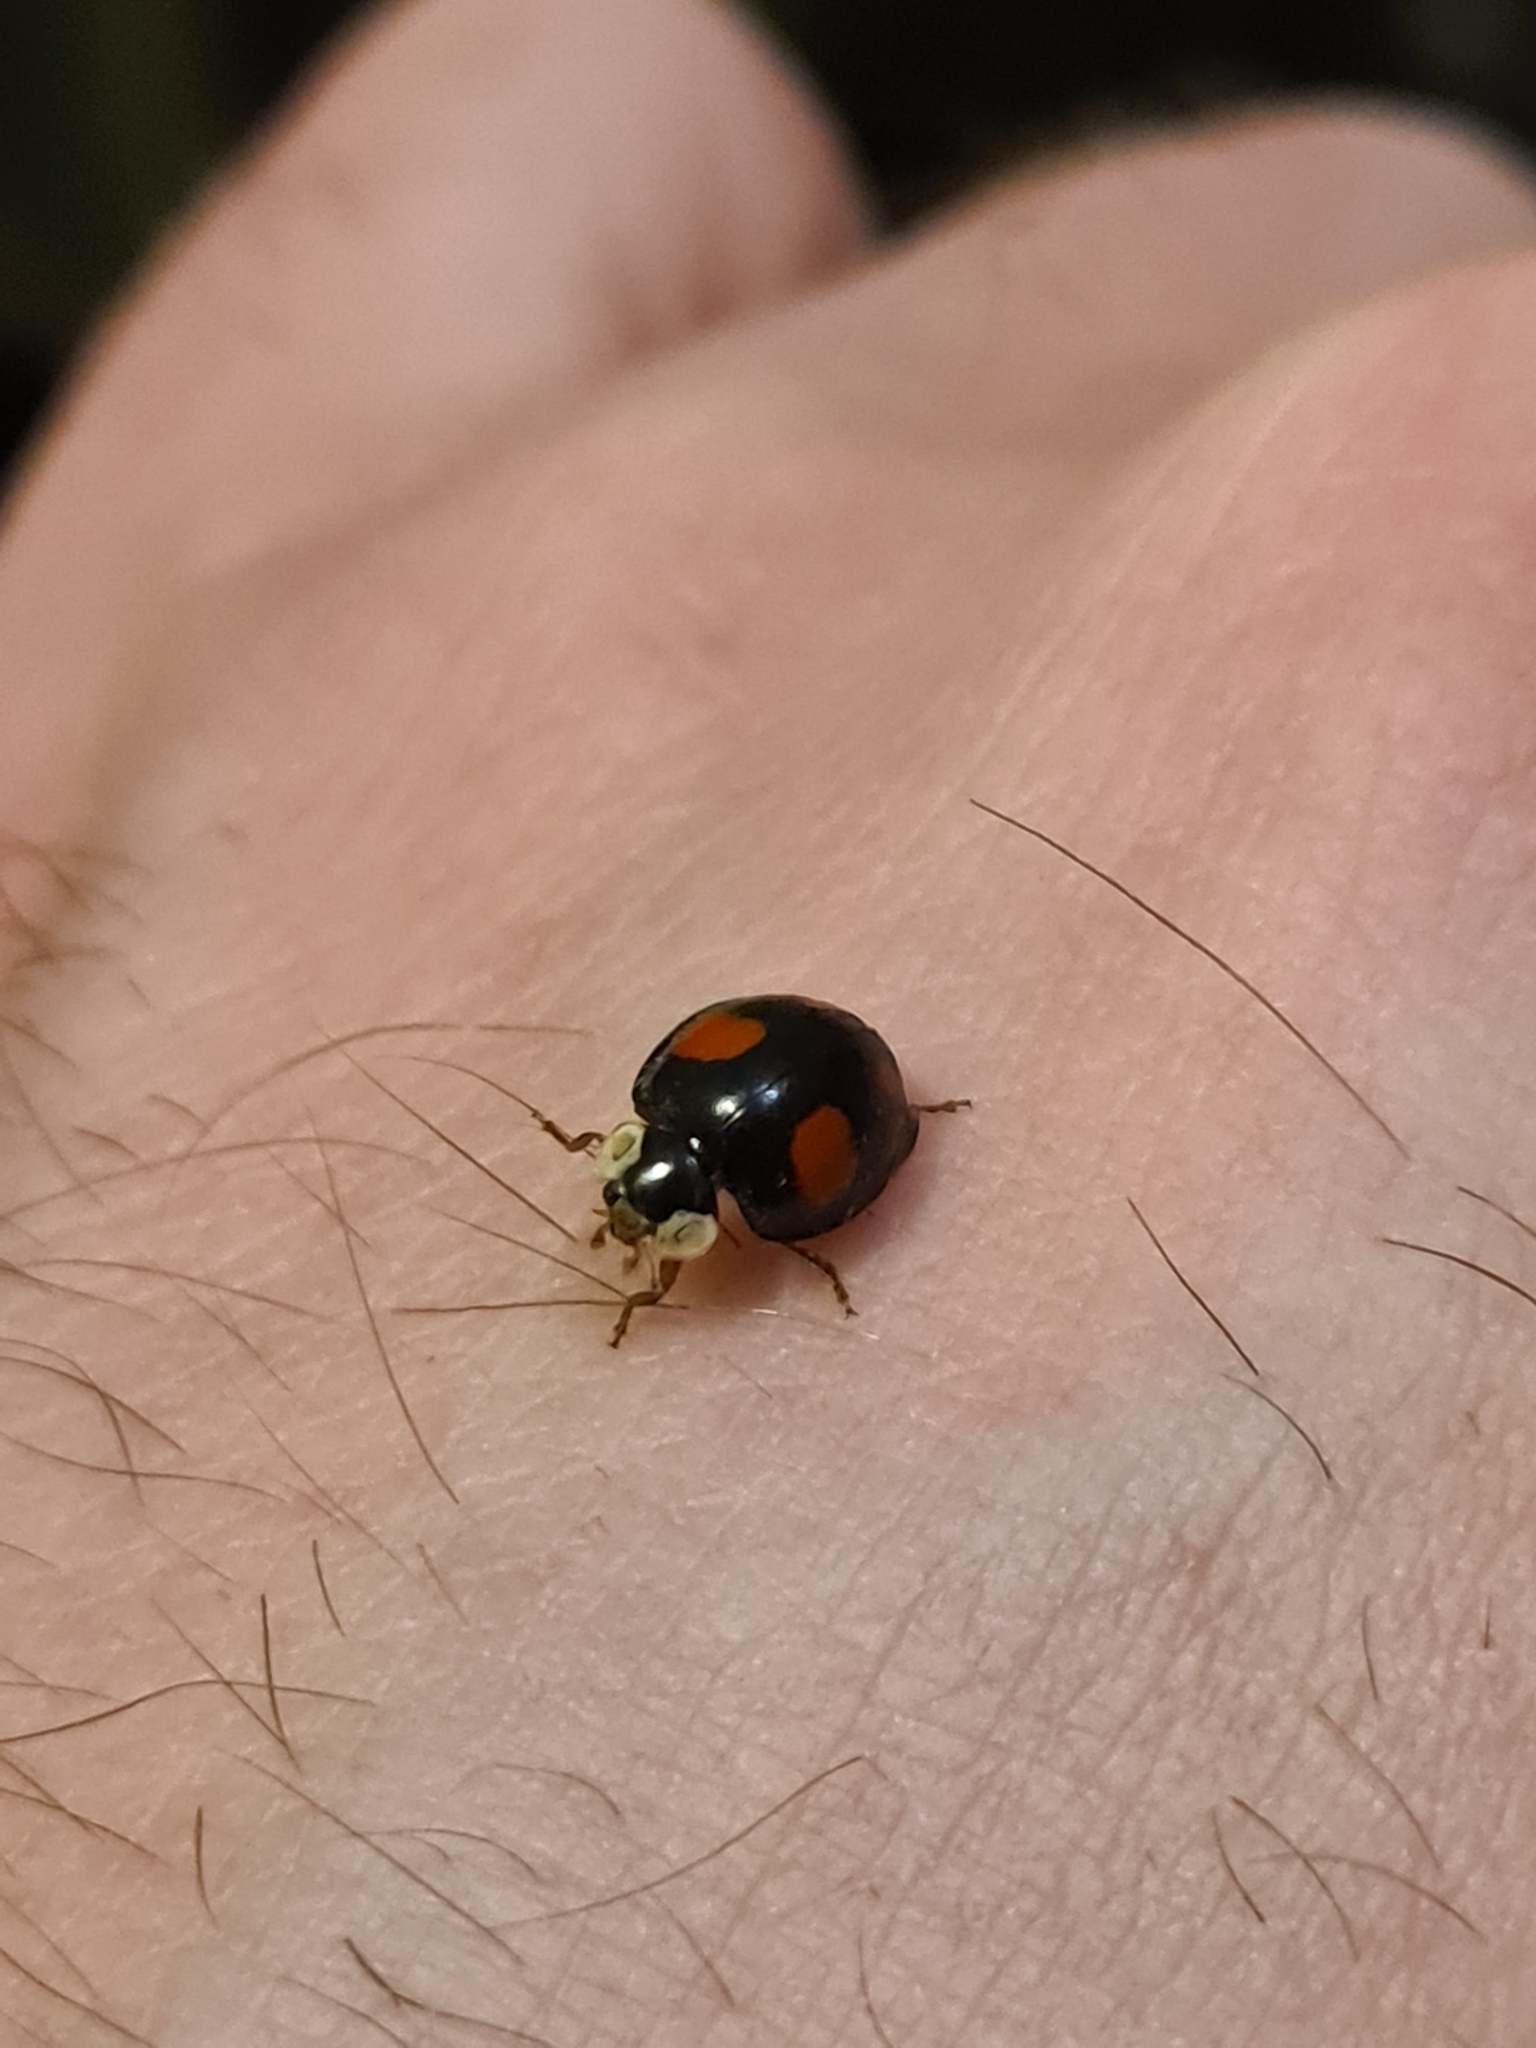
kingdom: Animalia
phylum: Arthropoda
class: Insecta
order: Coleoptera
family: Coccinellidae
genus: Harmonia
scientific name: Harmonia axyridis
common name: Harlequin ladybird
